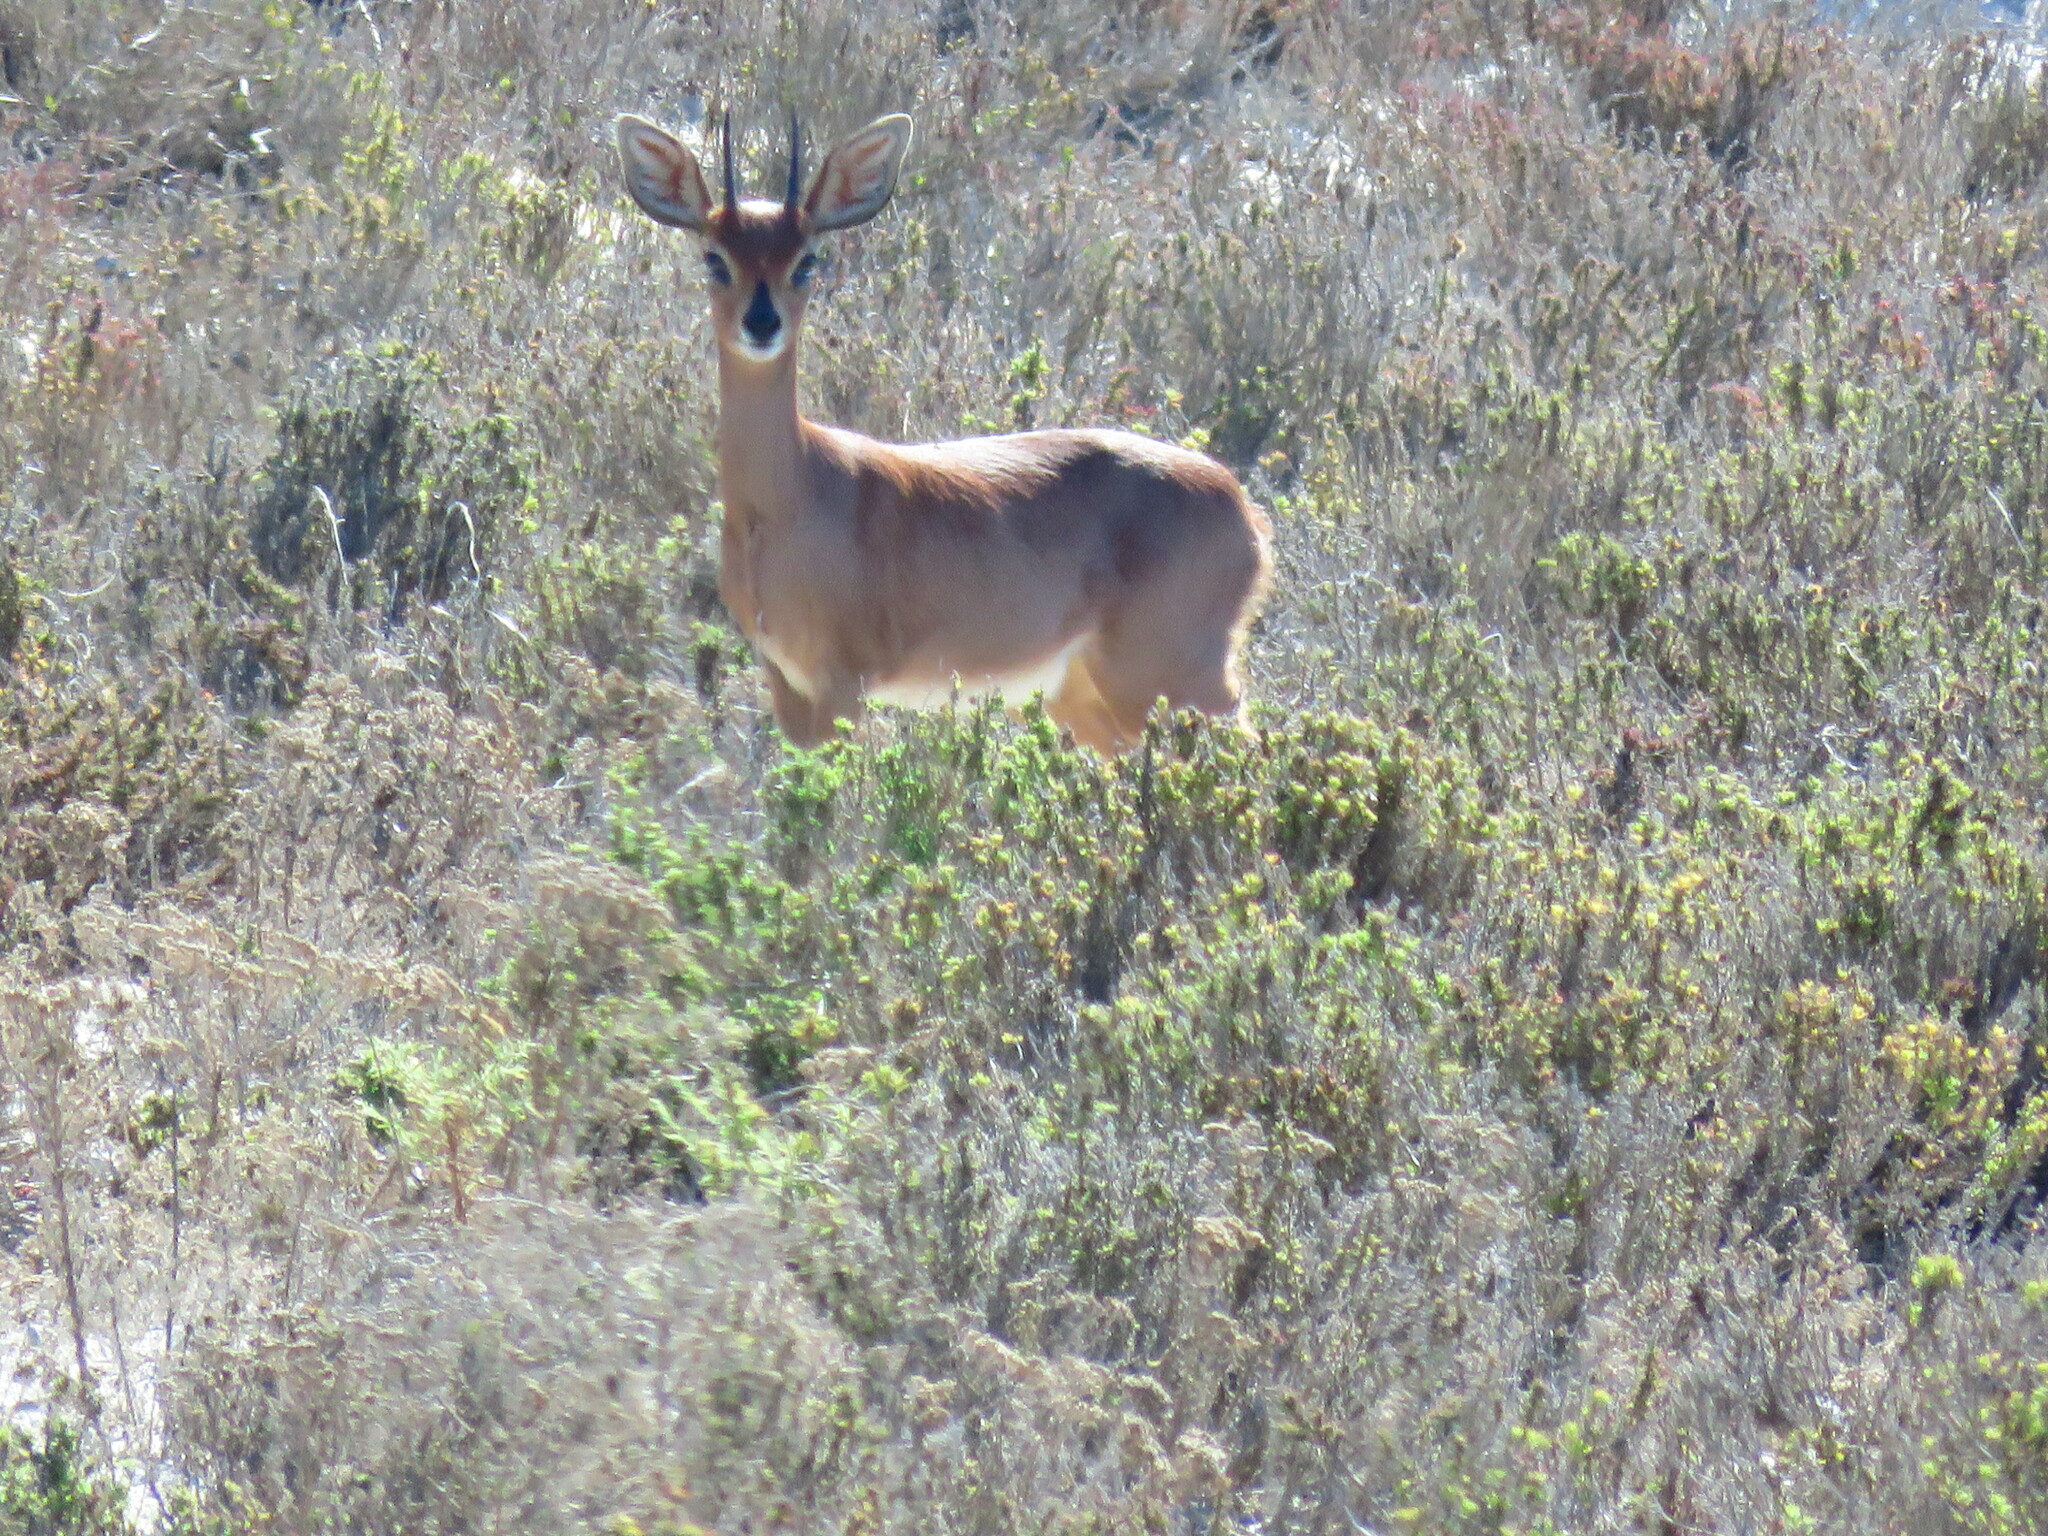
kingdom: Animalia
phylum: Chordata
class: Mammalia
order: Artiodactyla
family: Bovidae
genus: Raphicerus
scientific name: Raphicerus campestris
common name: Steenbok
